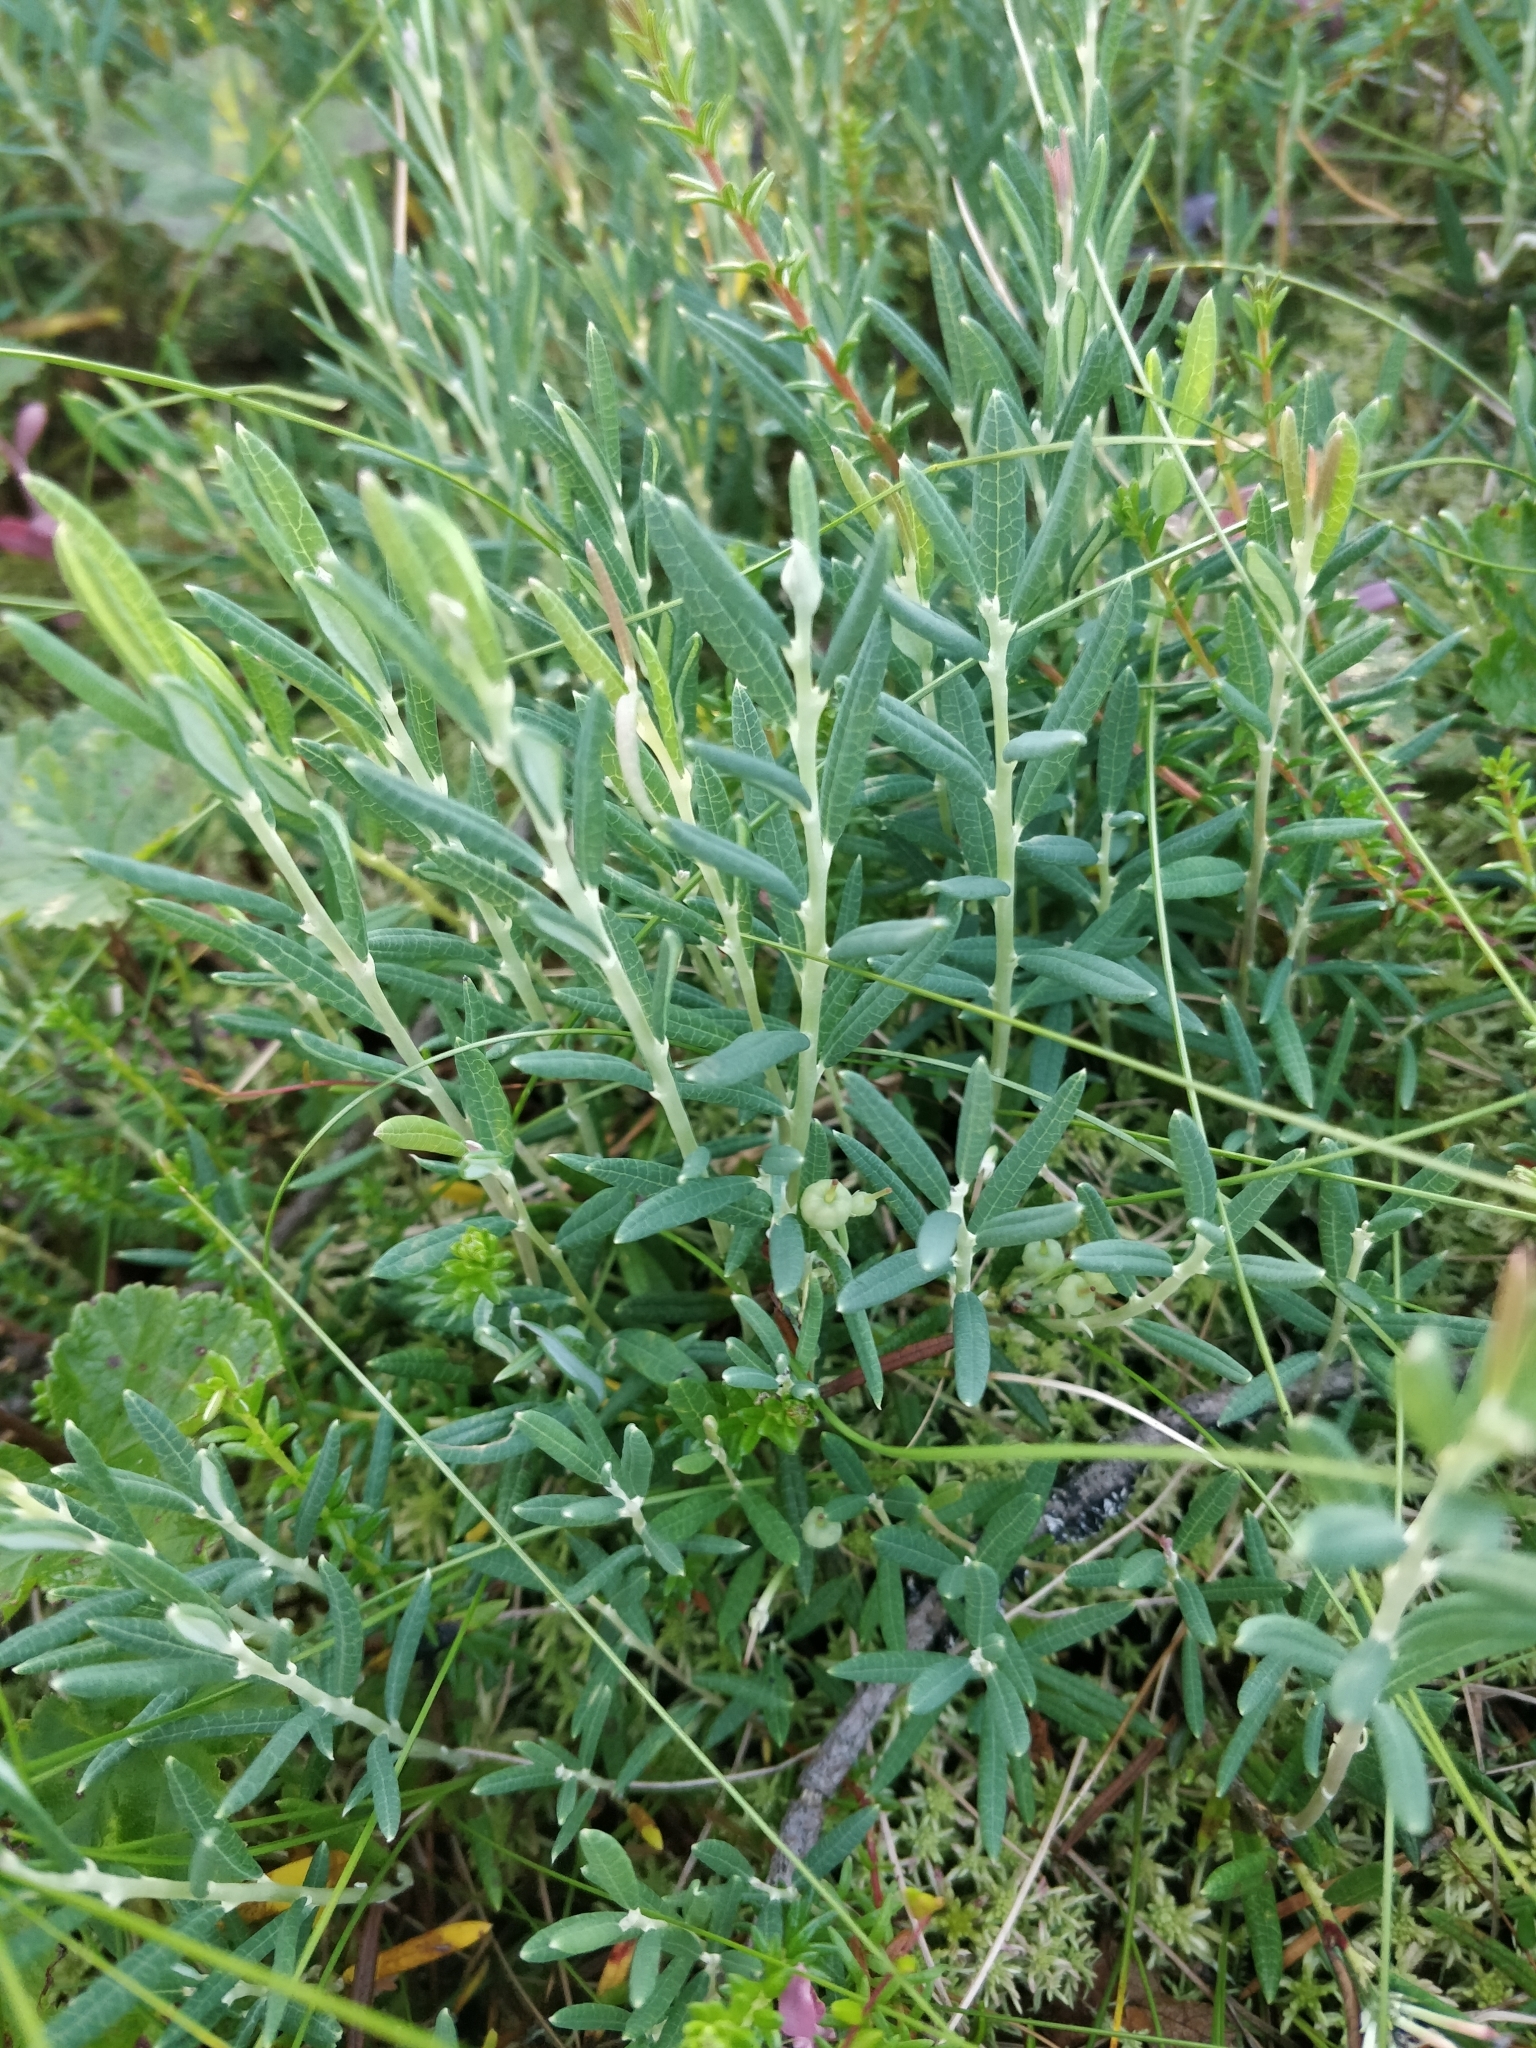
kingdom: Plantae
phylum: Tracheophyta
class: Magnoliopsida
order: Ericales
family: Ericaceae
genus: Andromeda
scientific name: Andromeda polifolia
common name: Bog-rosemary
